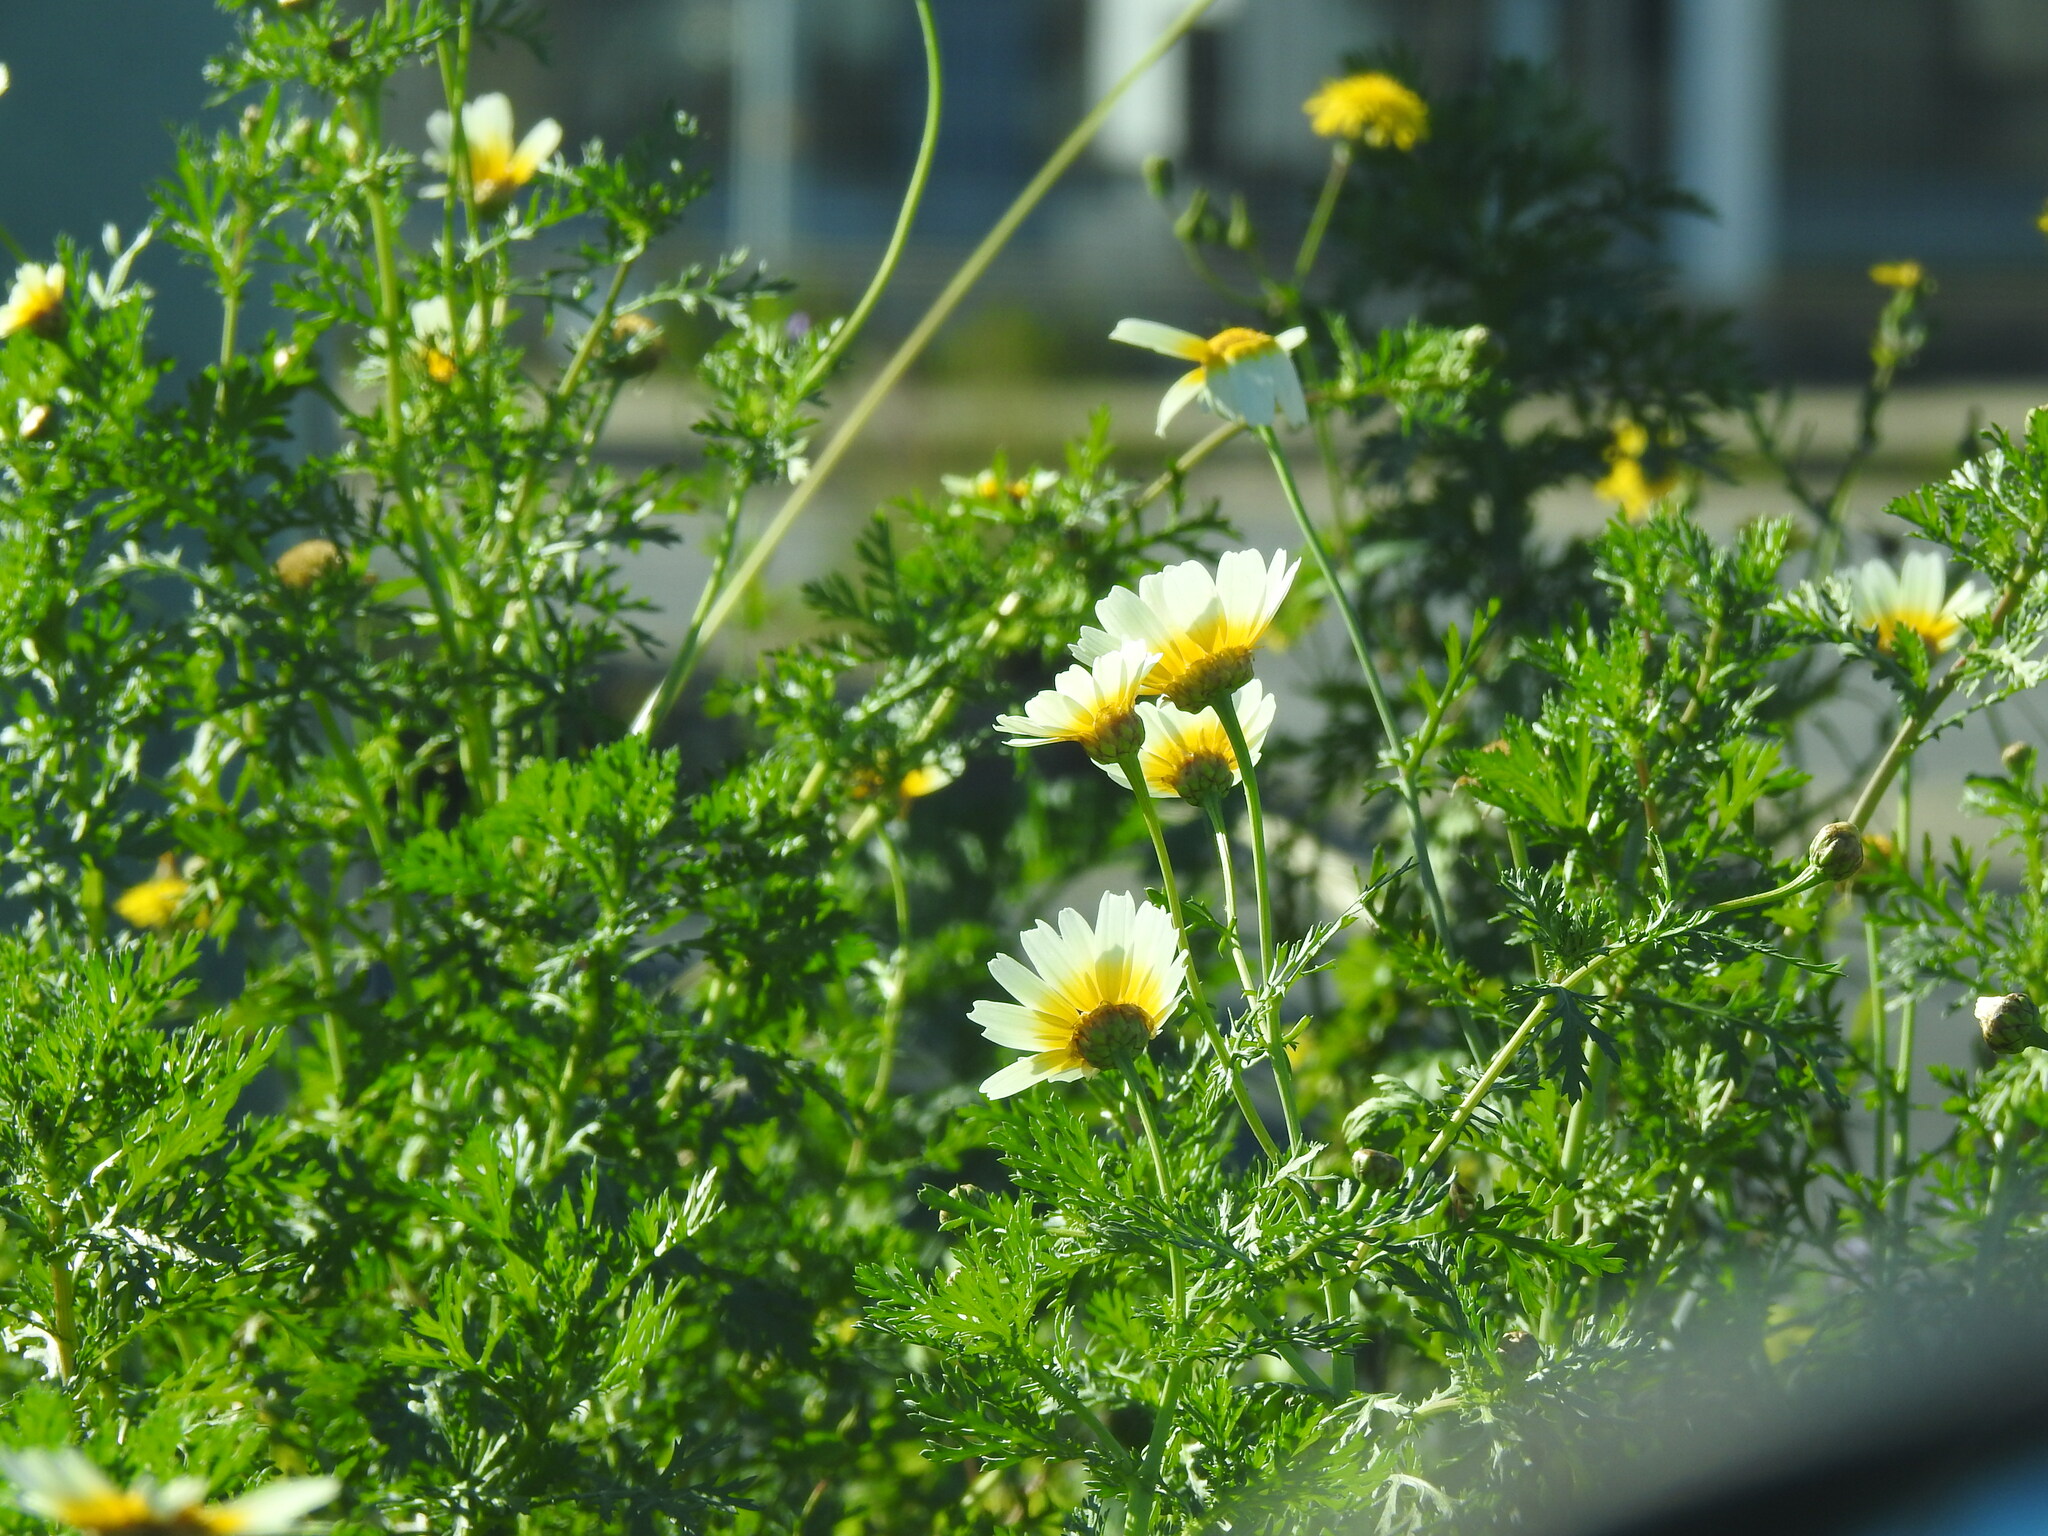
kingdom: Plantae
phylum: Tracheophyta
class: Magnoliopsida
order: Asterales
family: Asteraceae
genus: Glebionis
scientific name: Glebionis coronaria
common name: Crowndaisy
